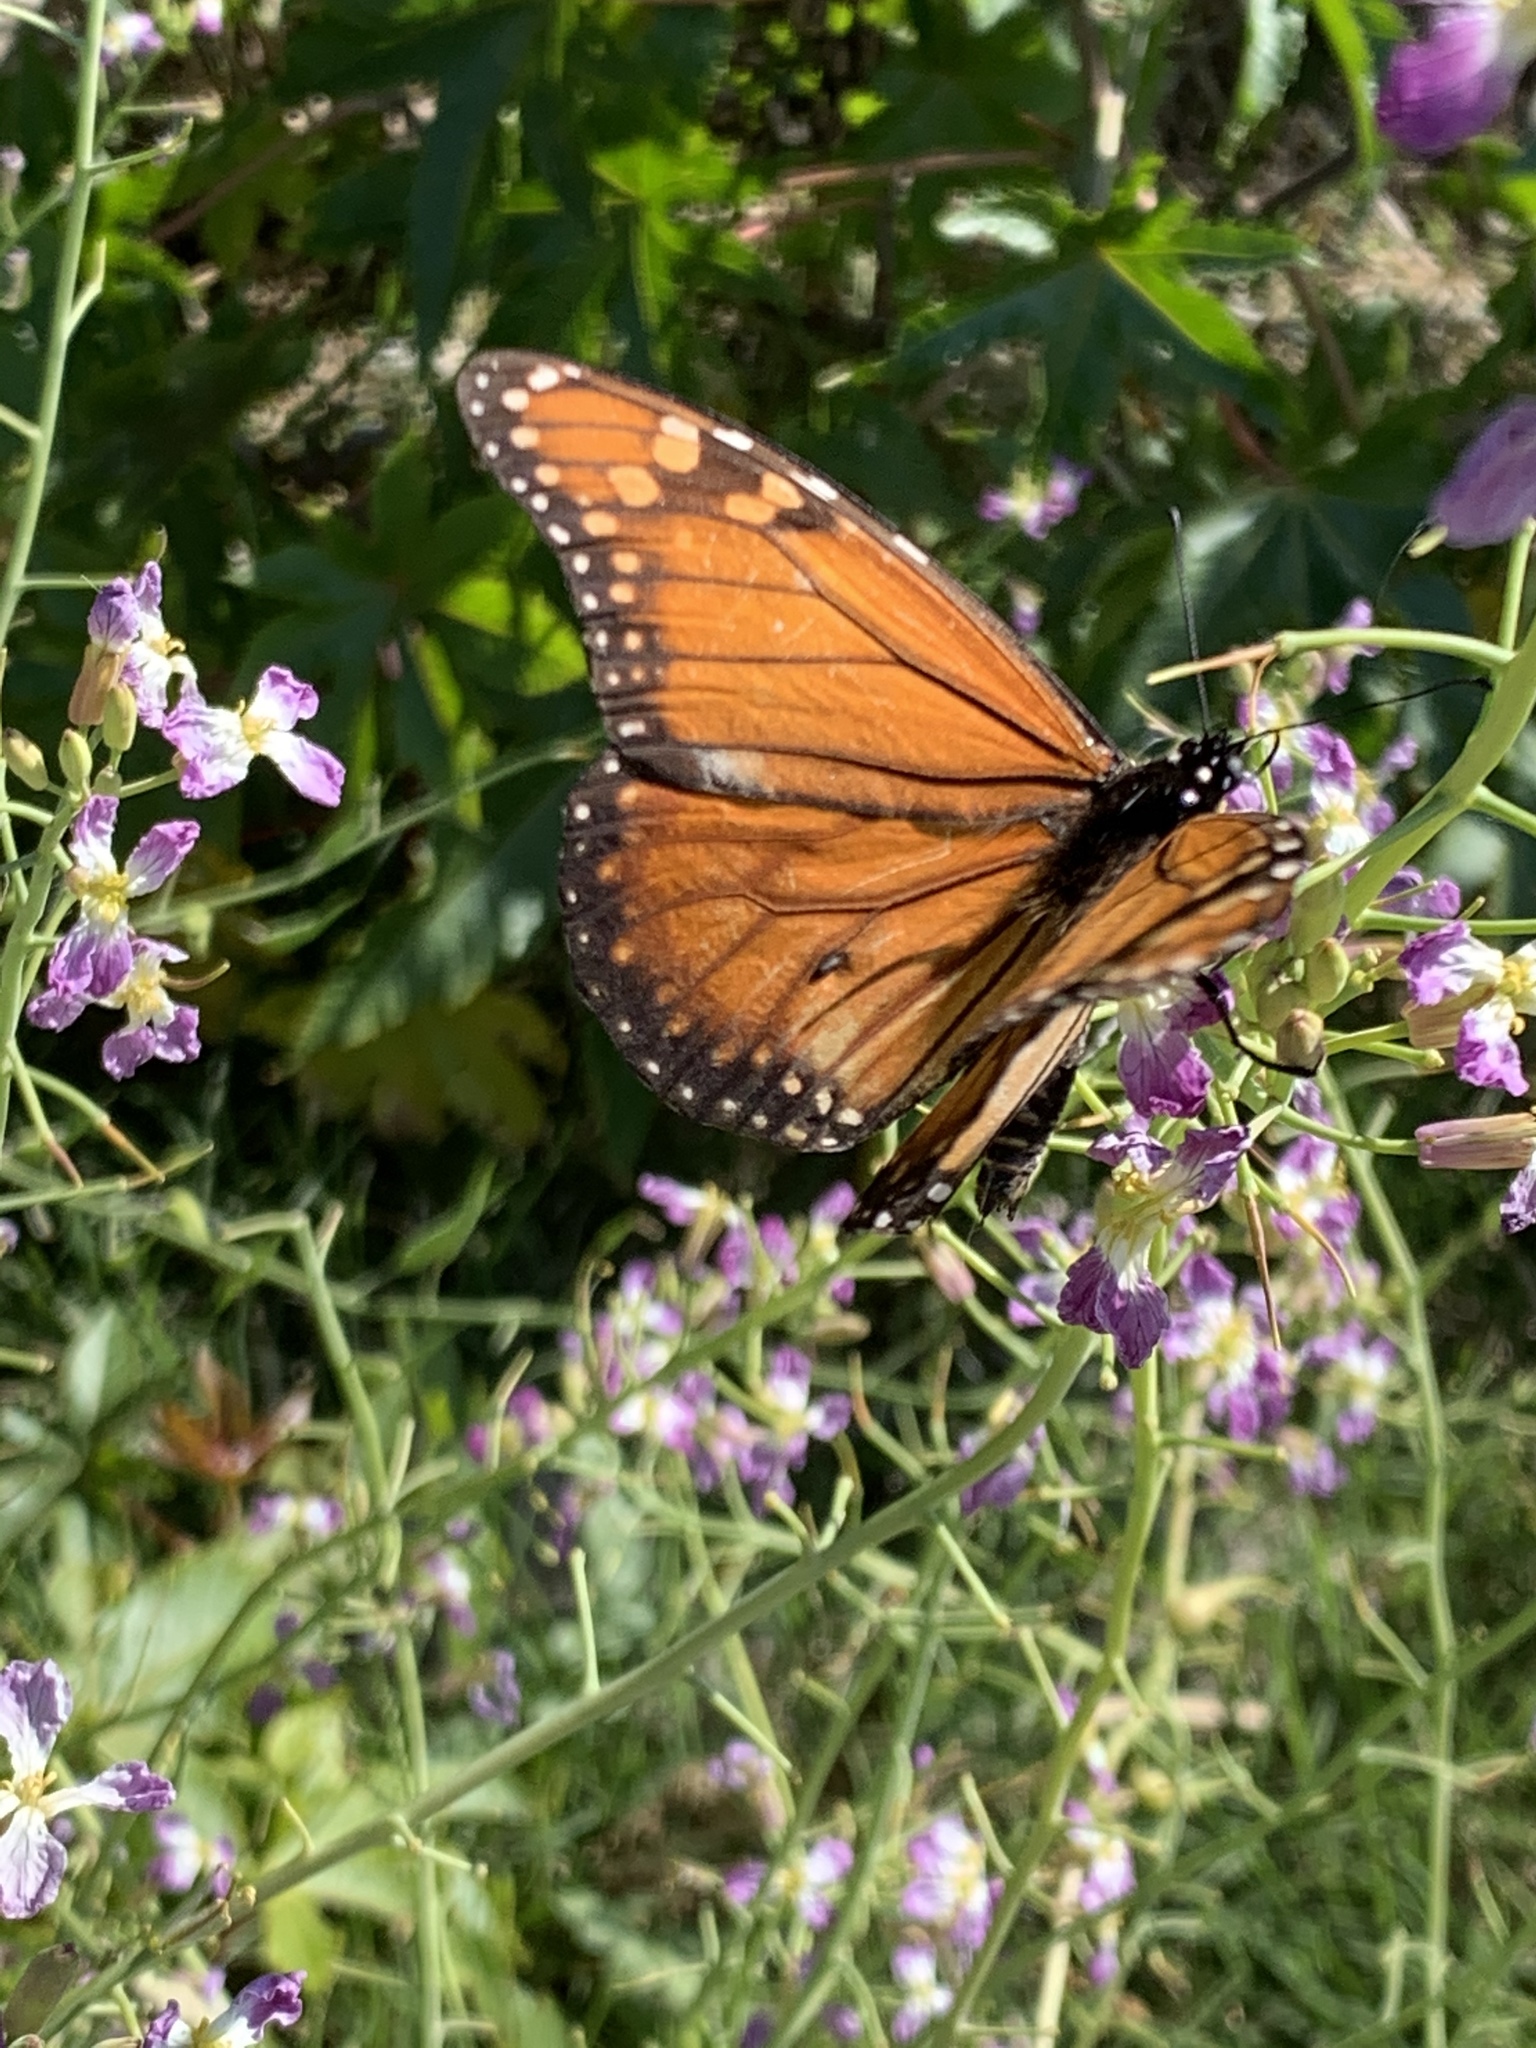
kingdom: Animalia
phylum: Arthropoda
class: Insecta
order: Lepidoptera
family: Nymphalidae
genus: Danaus
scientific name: Danaus erippus
